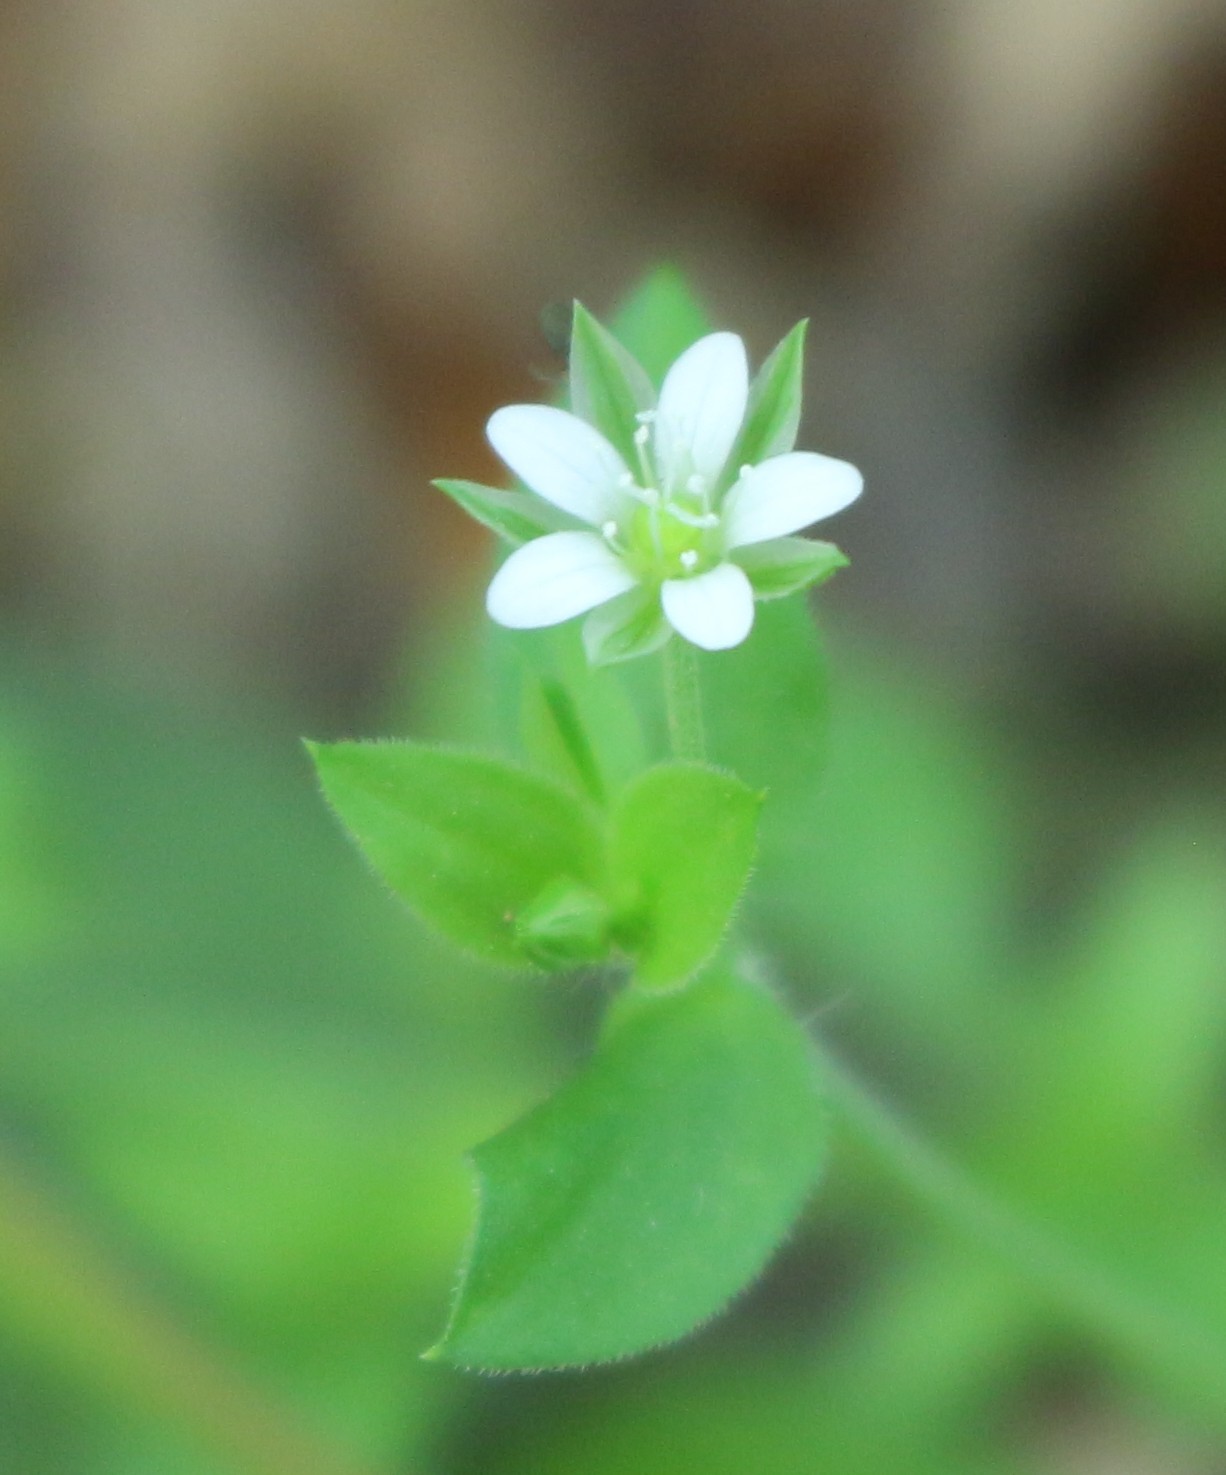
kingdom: Plantae
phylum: Tracheophyta
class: Magnoliopsida
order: Caryophyllales
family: Caryophyllaceae
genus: Moehringia
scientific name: Moehringia trinervia
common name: Three-nerved sandwort
